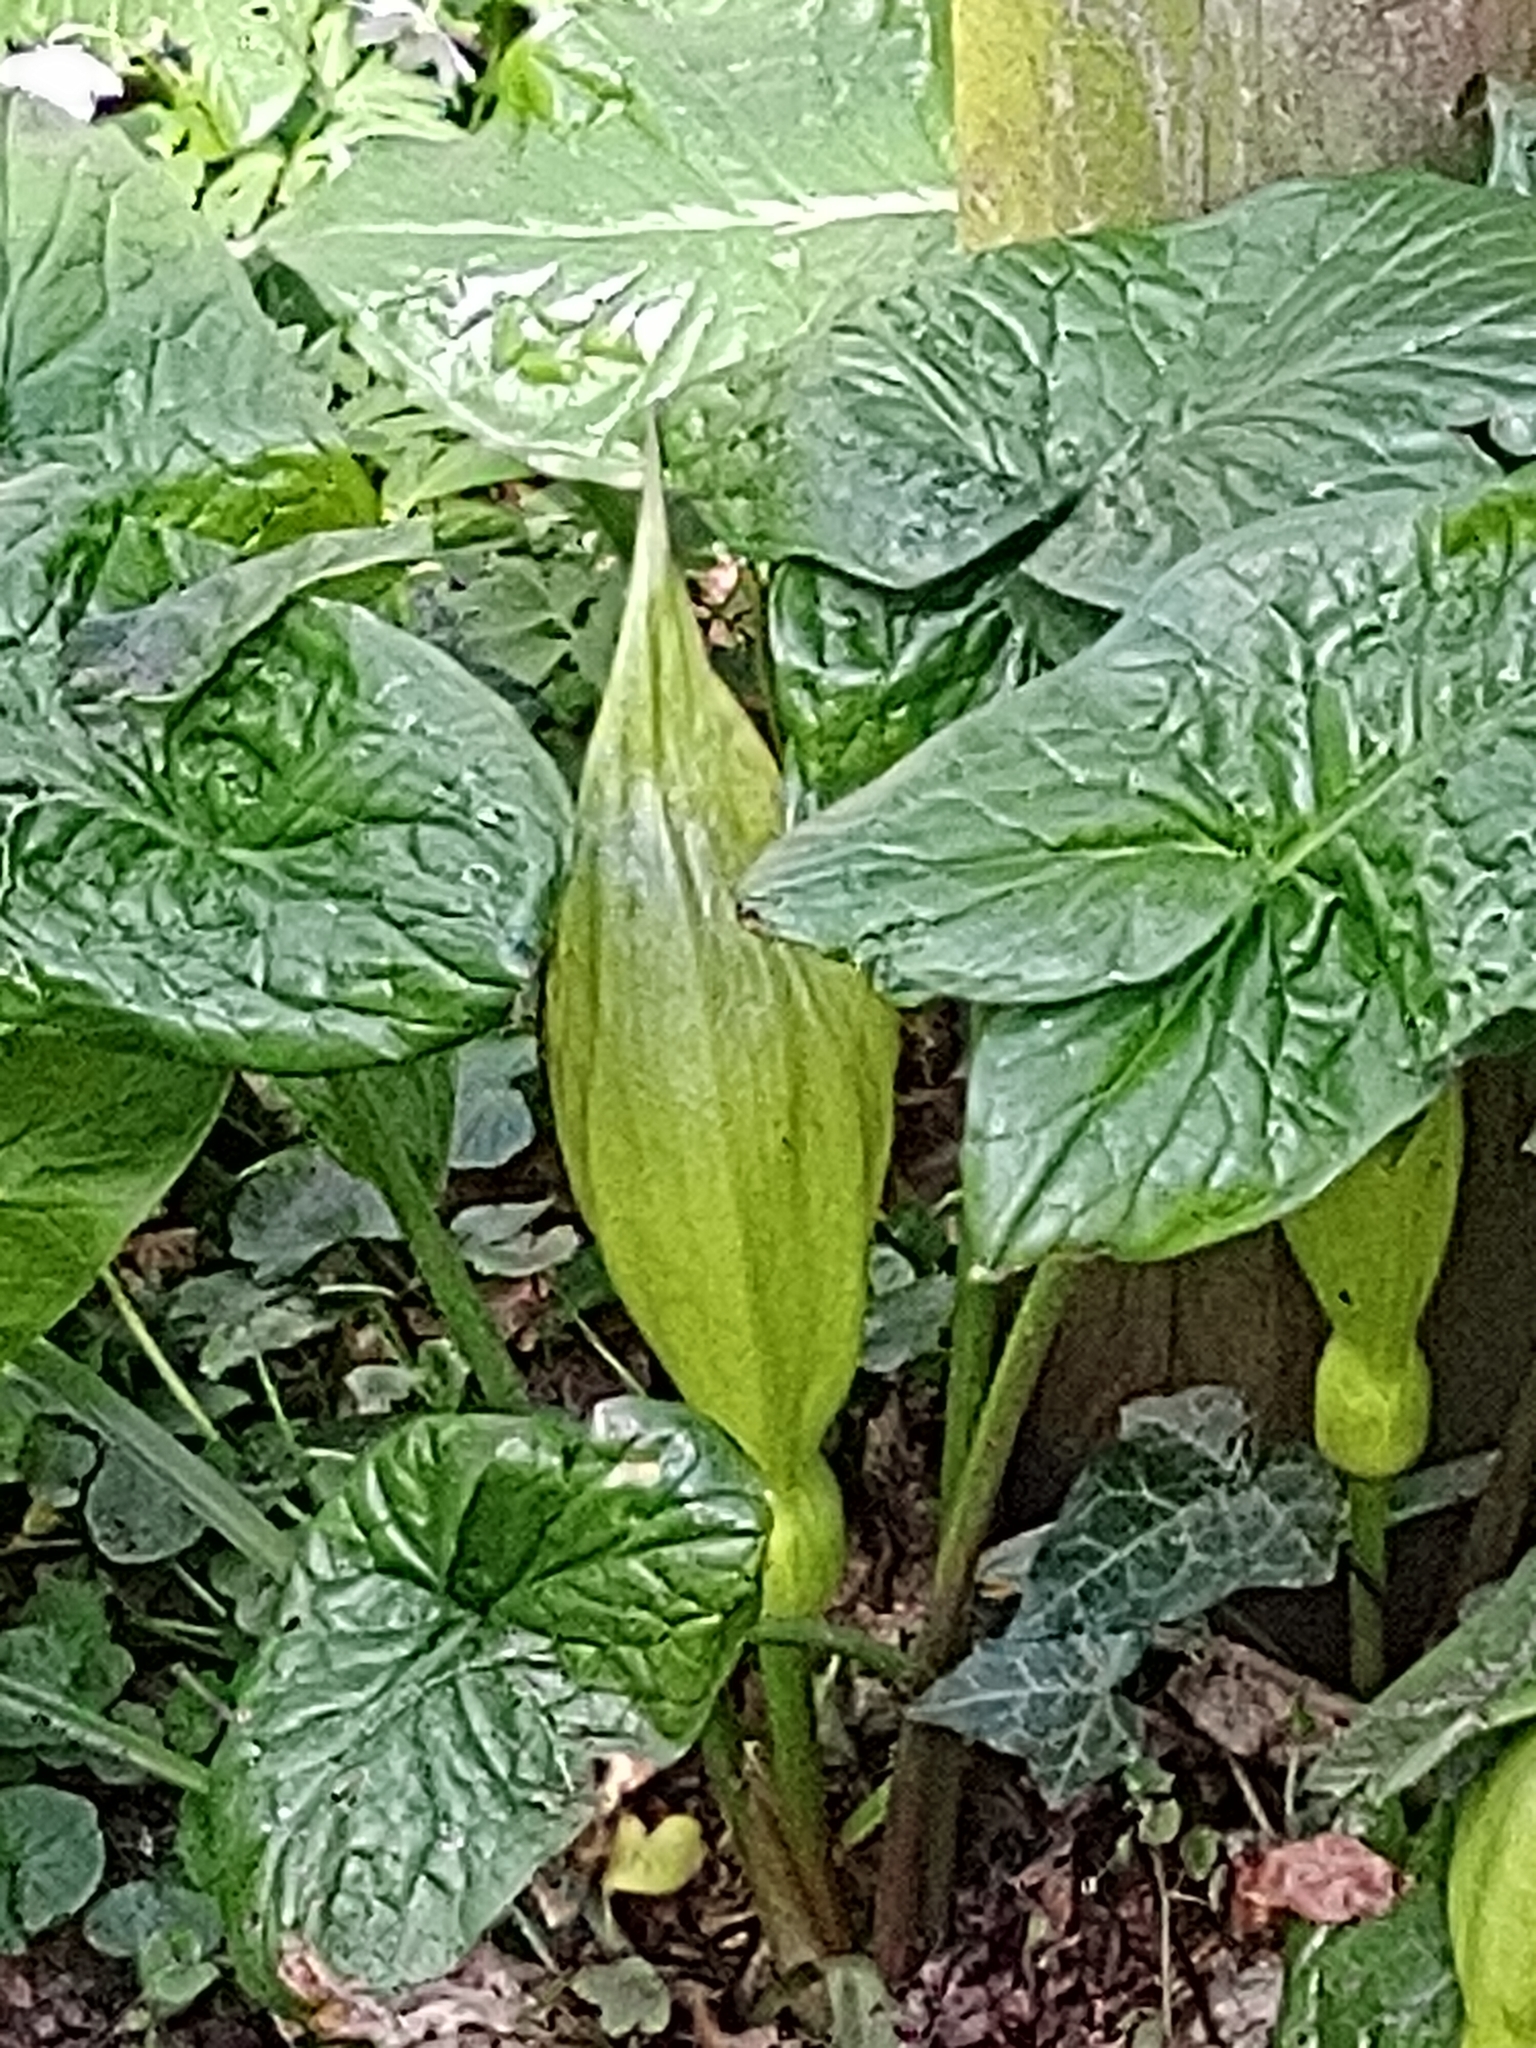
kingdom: Plantae
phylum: Tracheophyta
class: Liliopsida
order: Alismatales
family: Araceae
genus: Arum
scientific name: Arum italicum
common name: Italian lords-and-ladies
